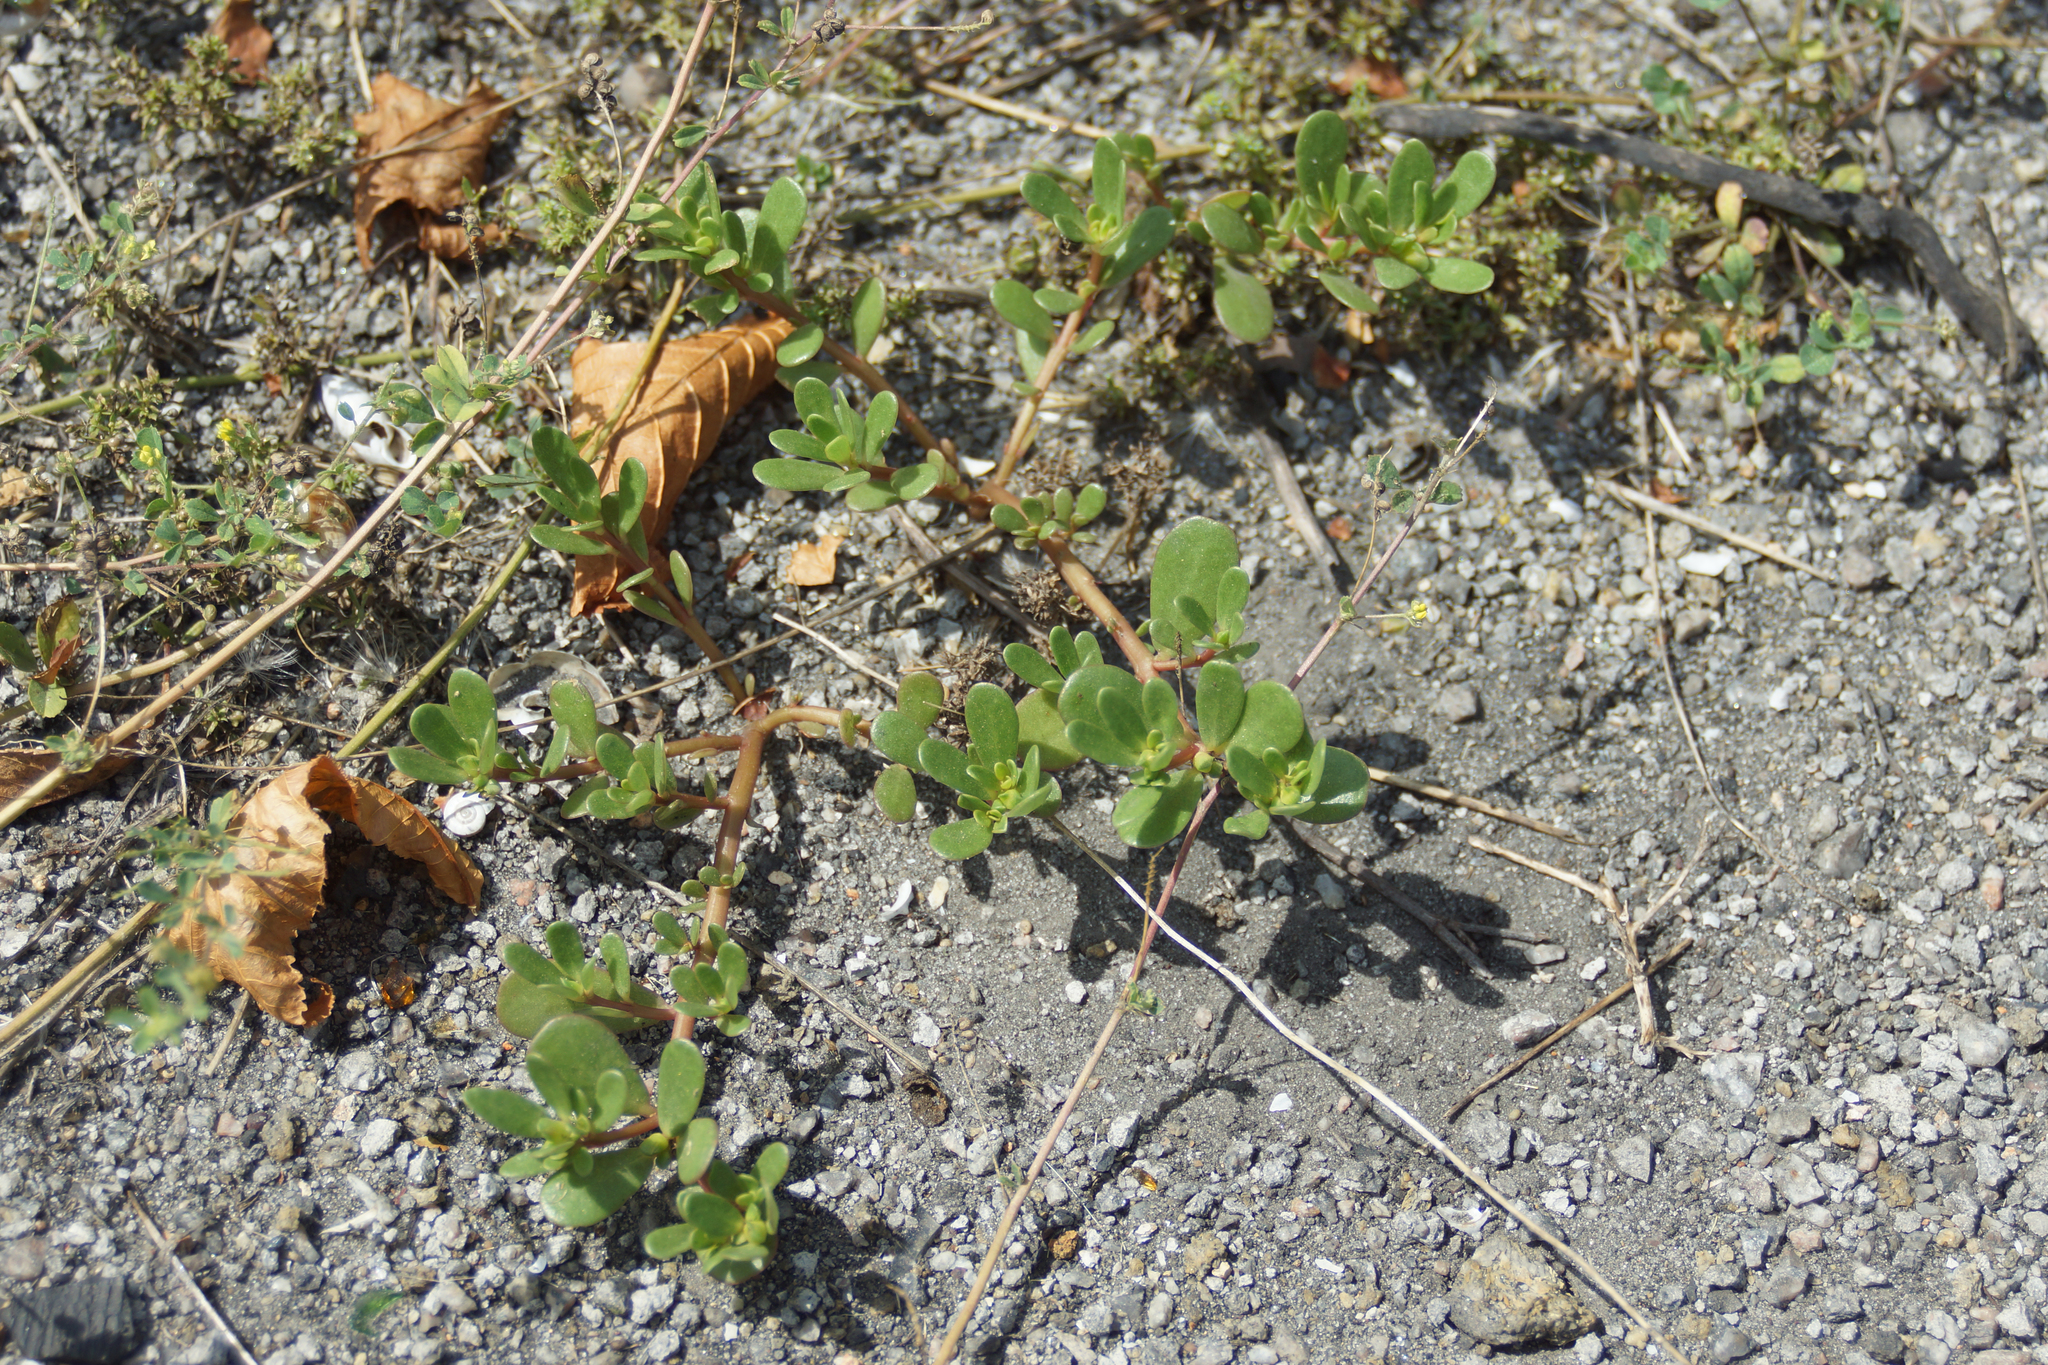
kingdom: Plantae
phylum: Tracheophyta
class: Magnoliopsida
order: Caryophyllales
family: Portulacaceae
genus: Portulaca
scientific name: Portulaca oleracea
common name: Common purslane
